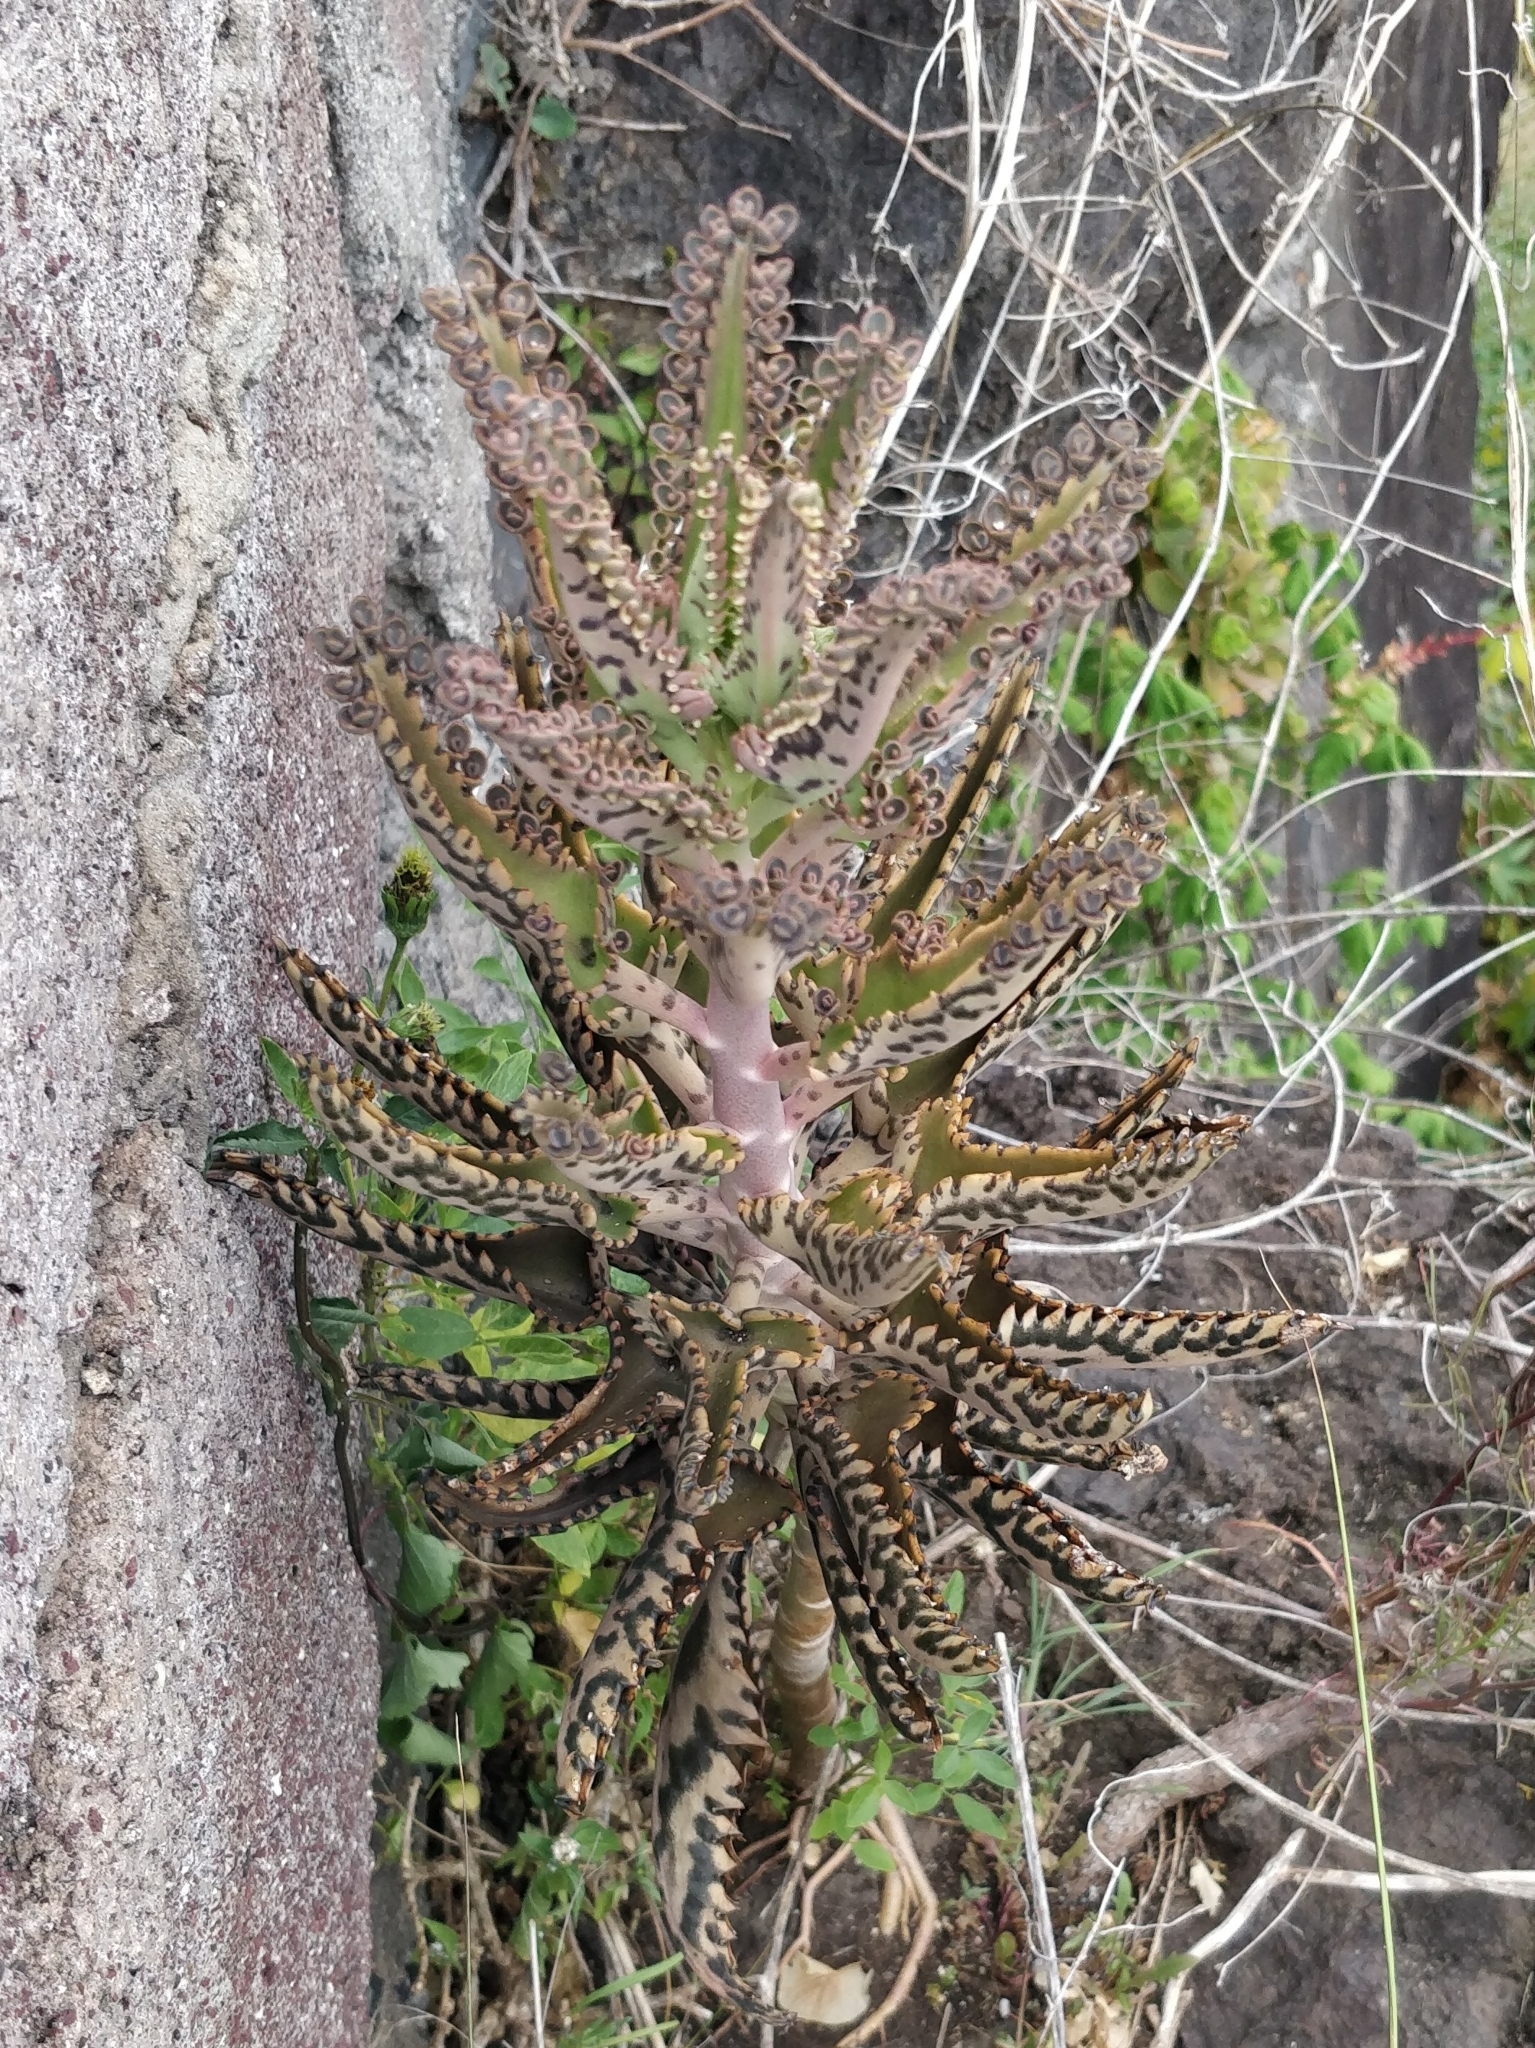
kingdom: Plantae
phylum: Tracheophyta
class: Magnoliopsida
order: Saxifragales
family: Crassulaceae
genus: Kalanchoe
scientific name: Kalanchoe houghtonii
